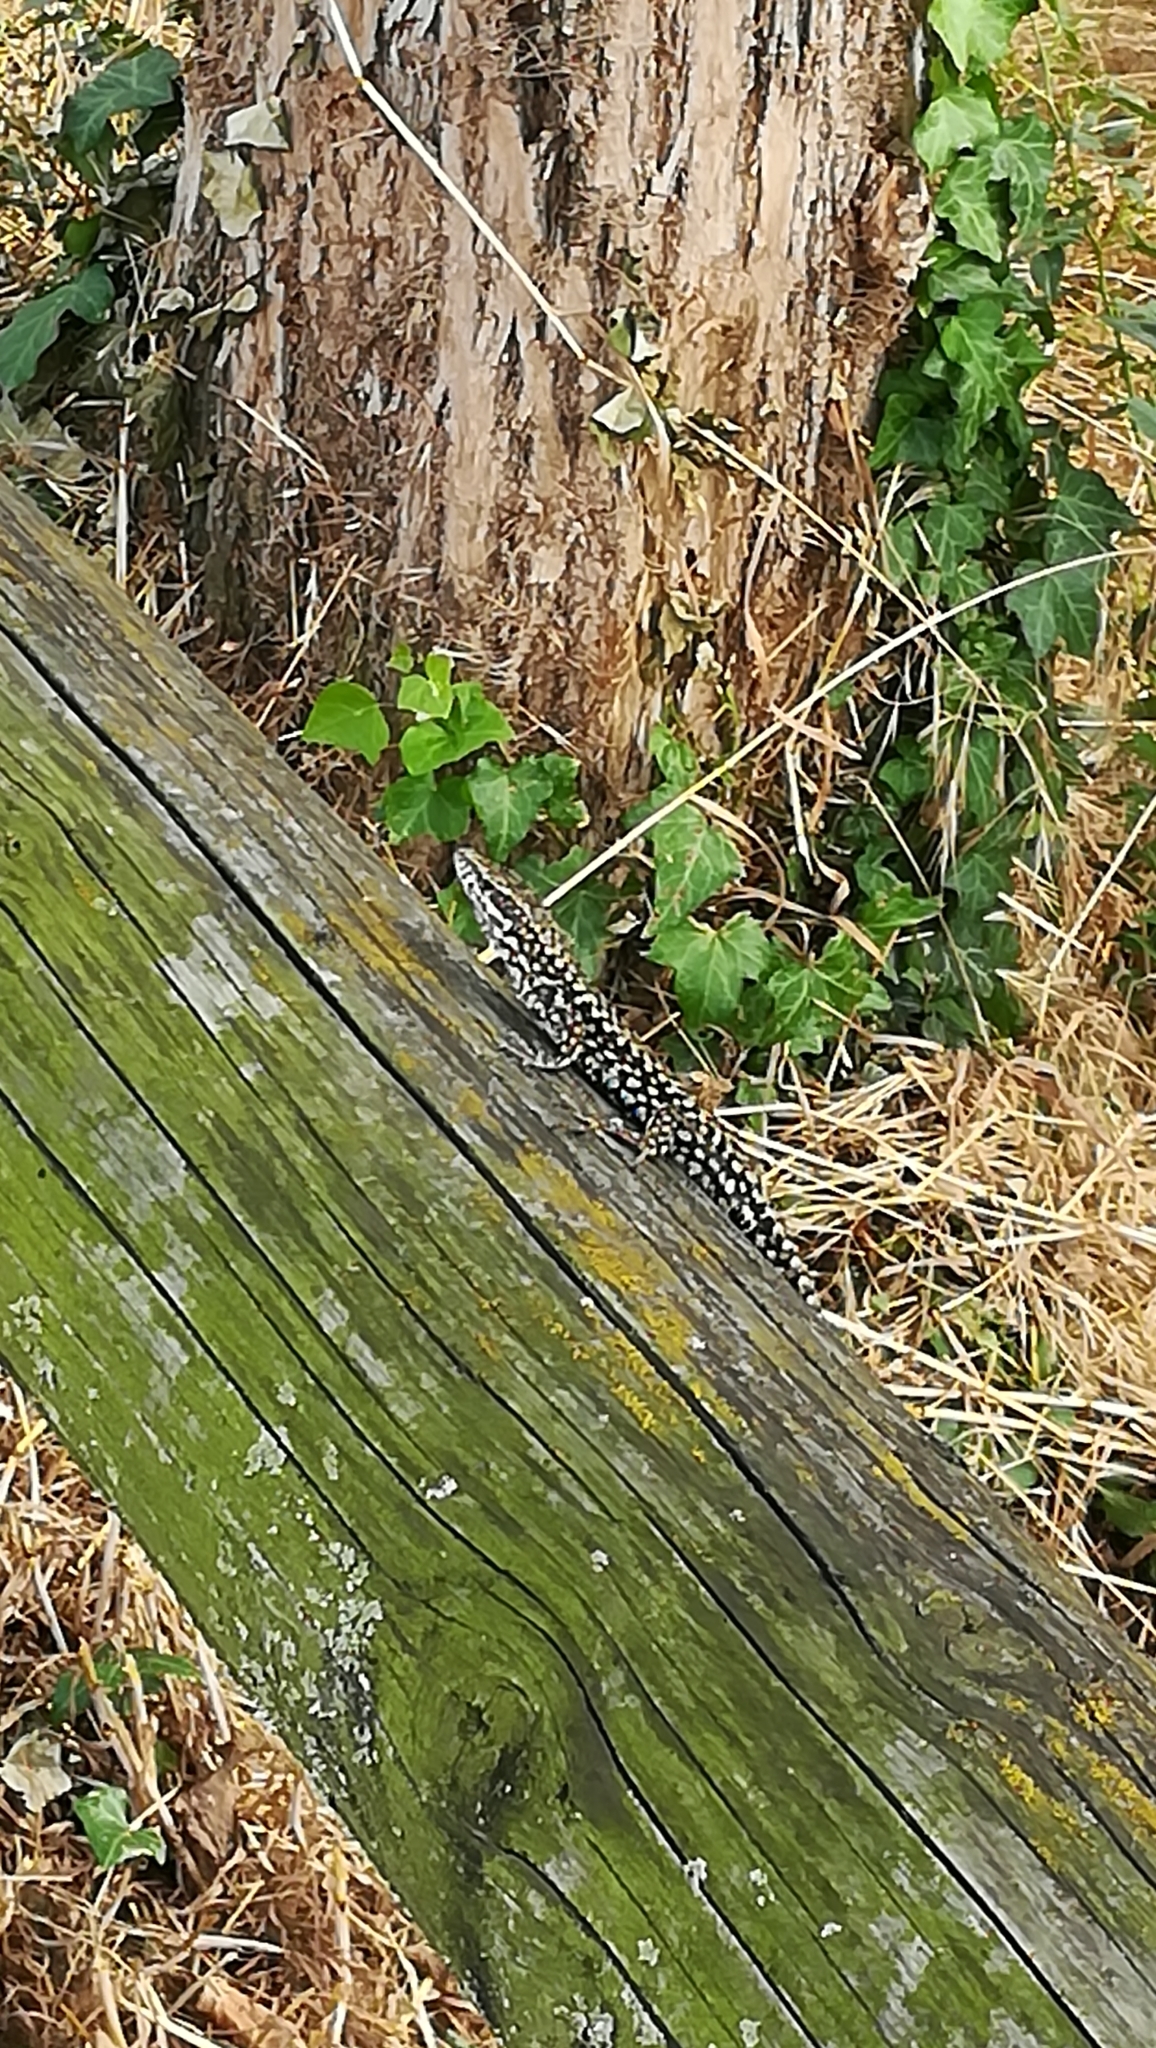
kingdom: Animalia
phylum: Chordata
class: Squamata
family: Lacertidae
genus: Podarcis
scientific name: Podarcis muralis
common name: Common wall lizard
